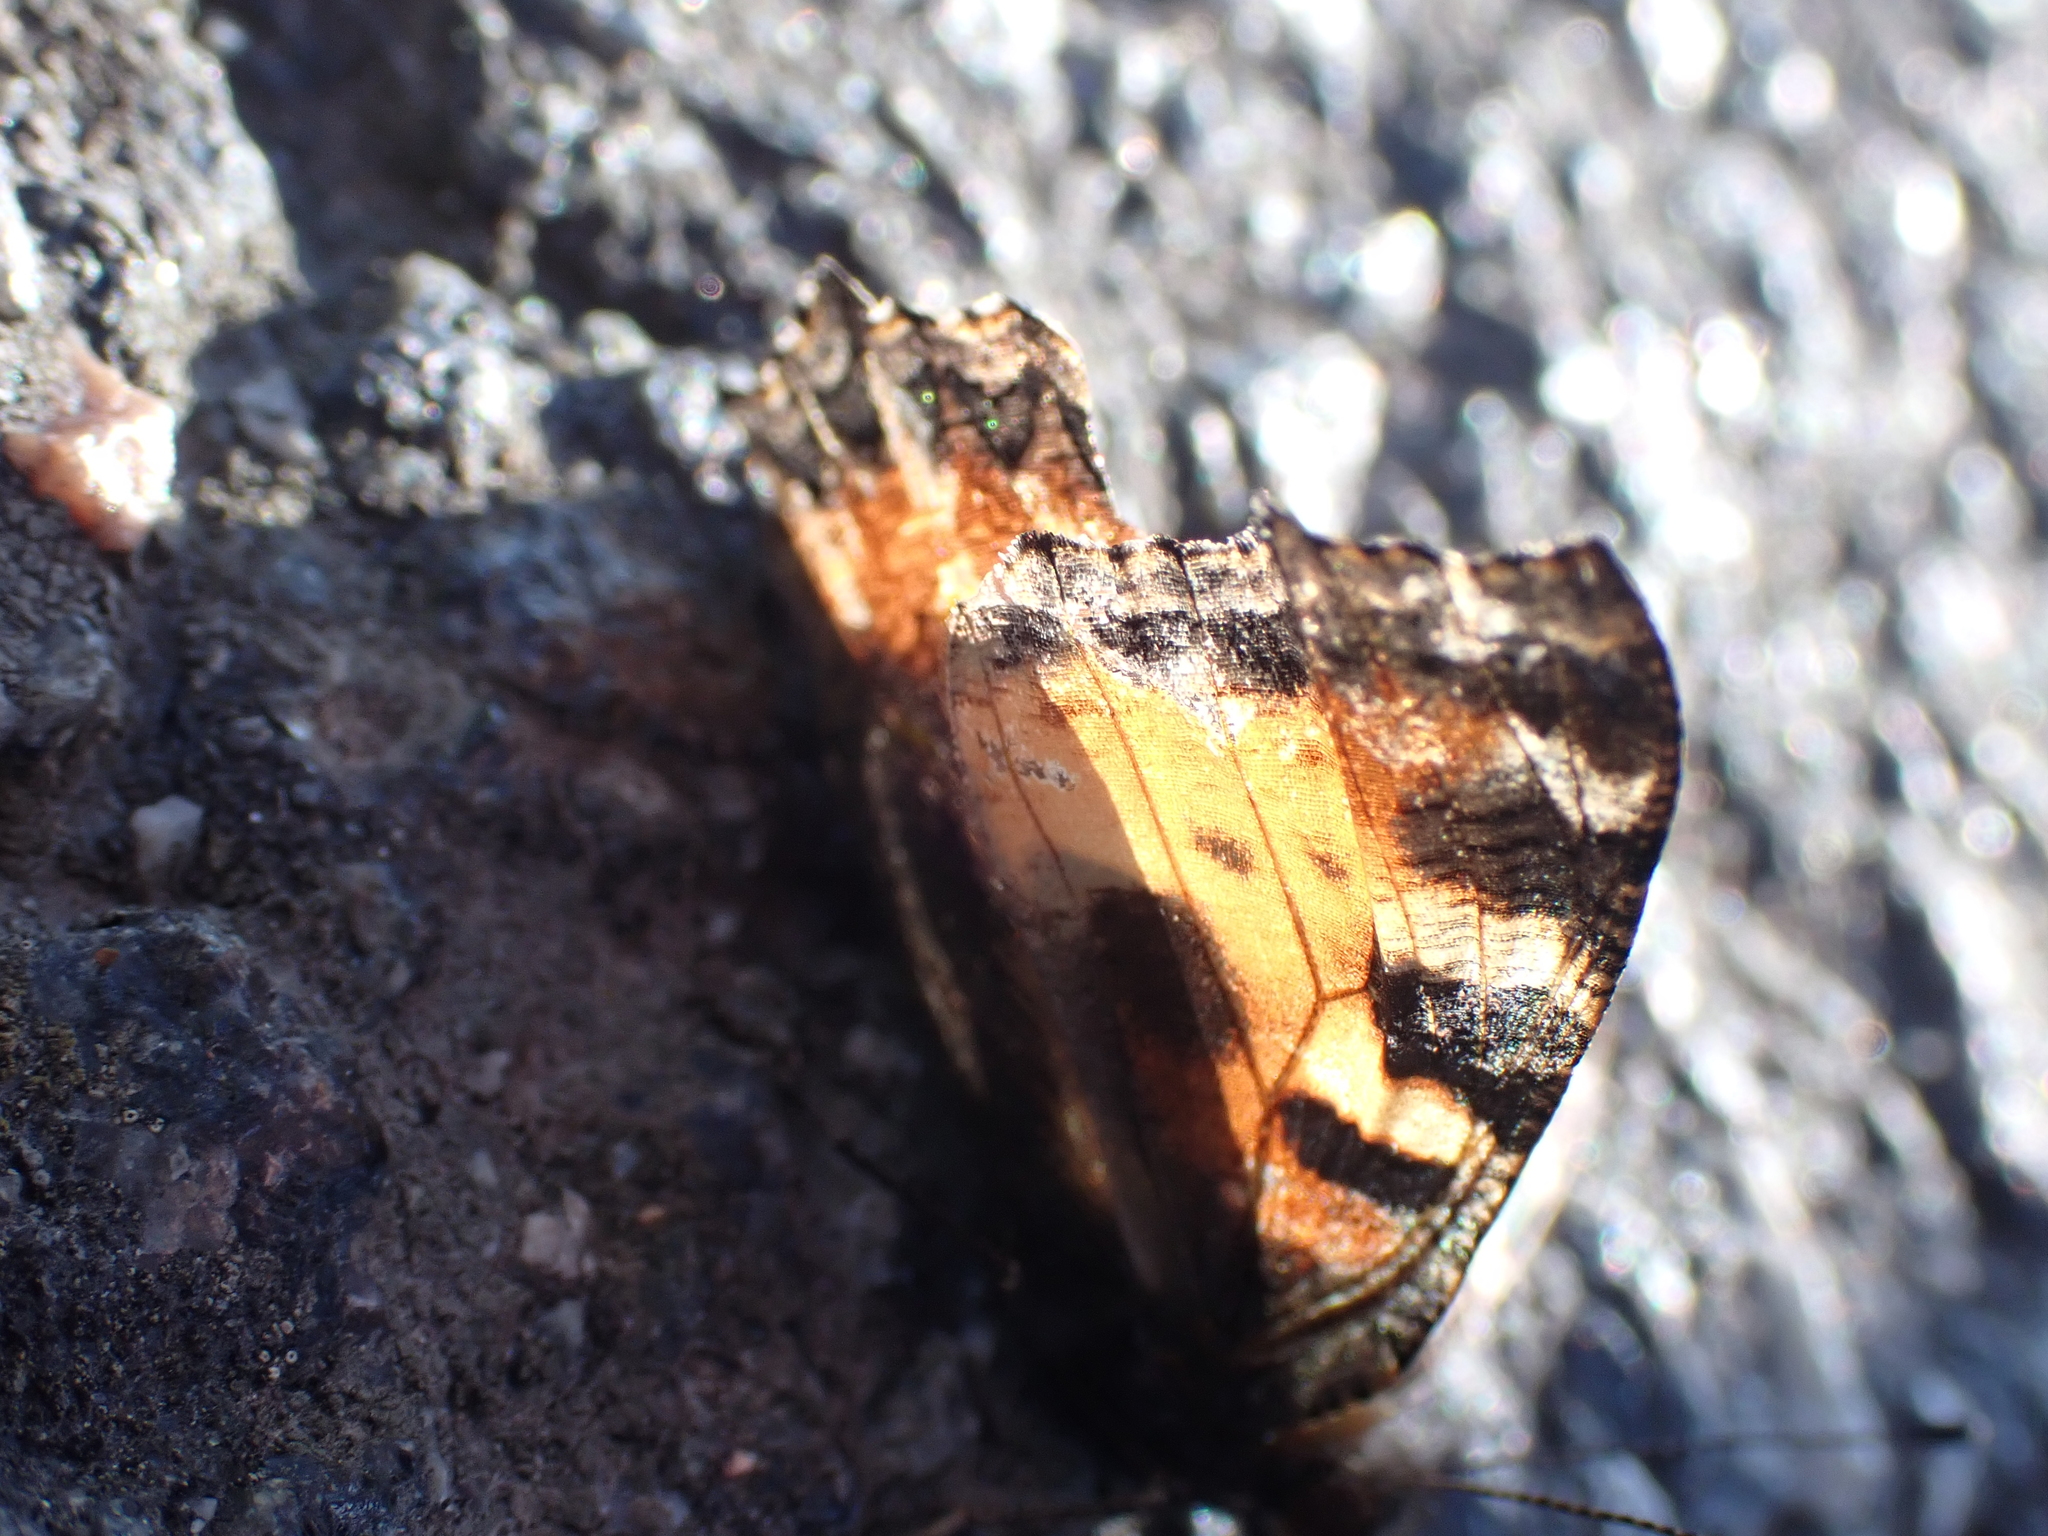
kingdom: Animalia
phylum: Arthropoda
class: Insecta
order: Lepidoptera
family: Nymphalidae
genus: Aglais
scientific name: Aglais urticae
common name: Small tortoiseshell
